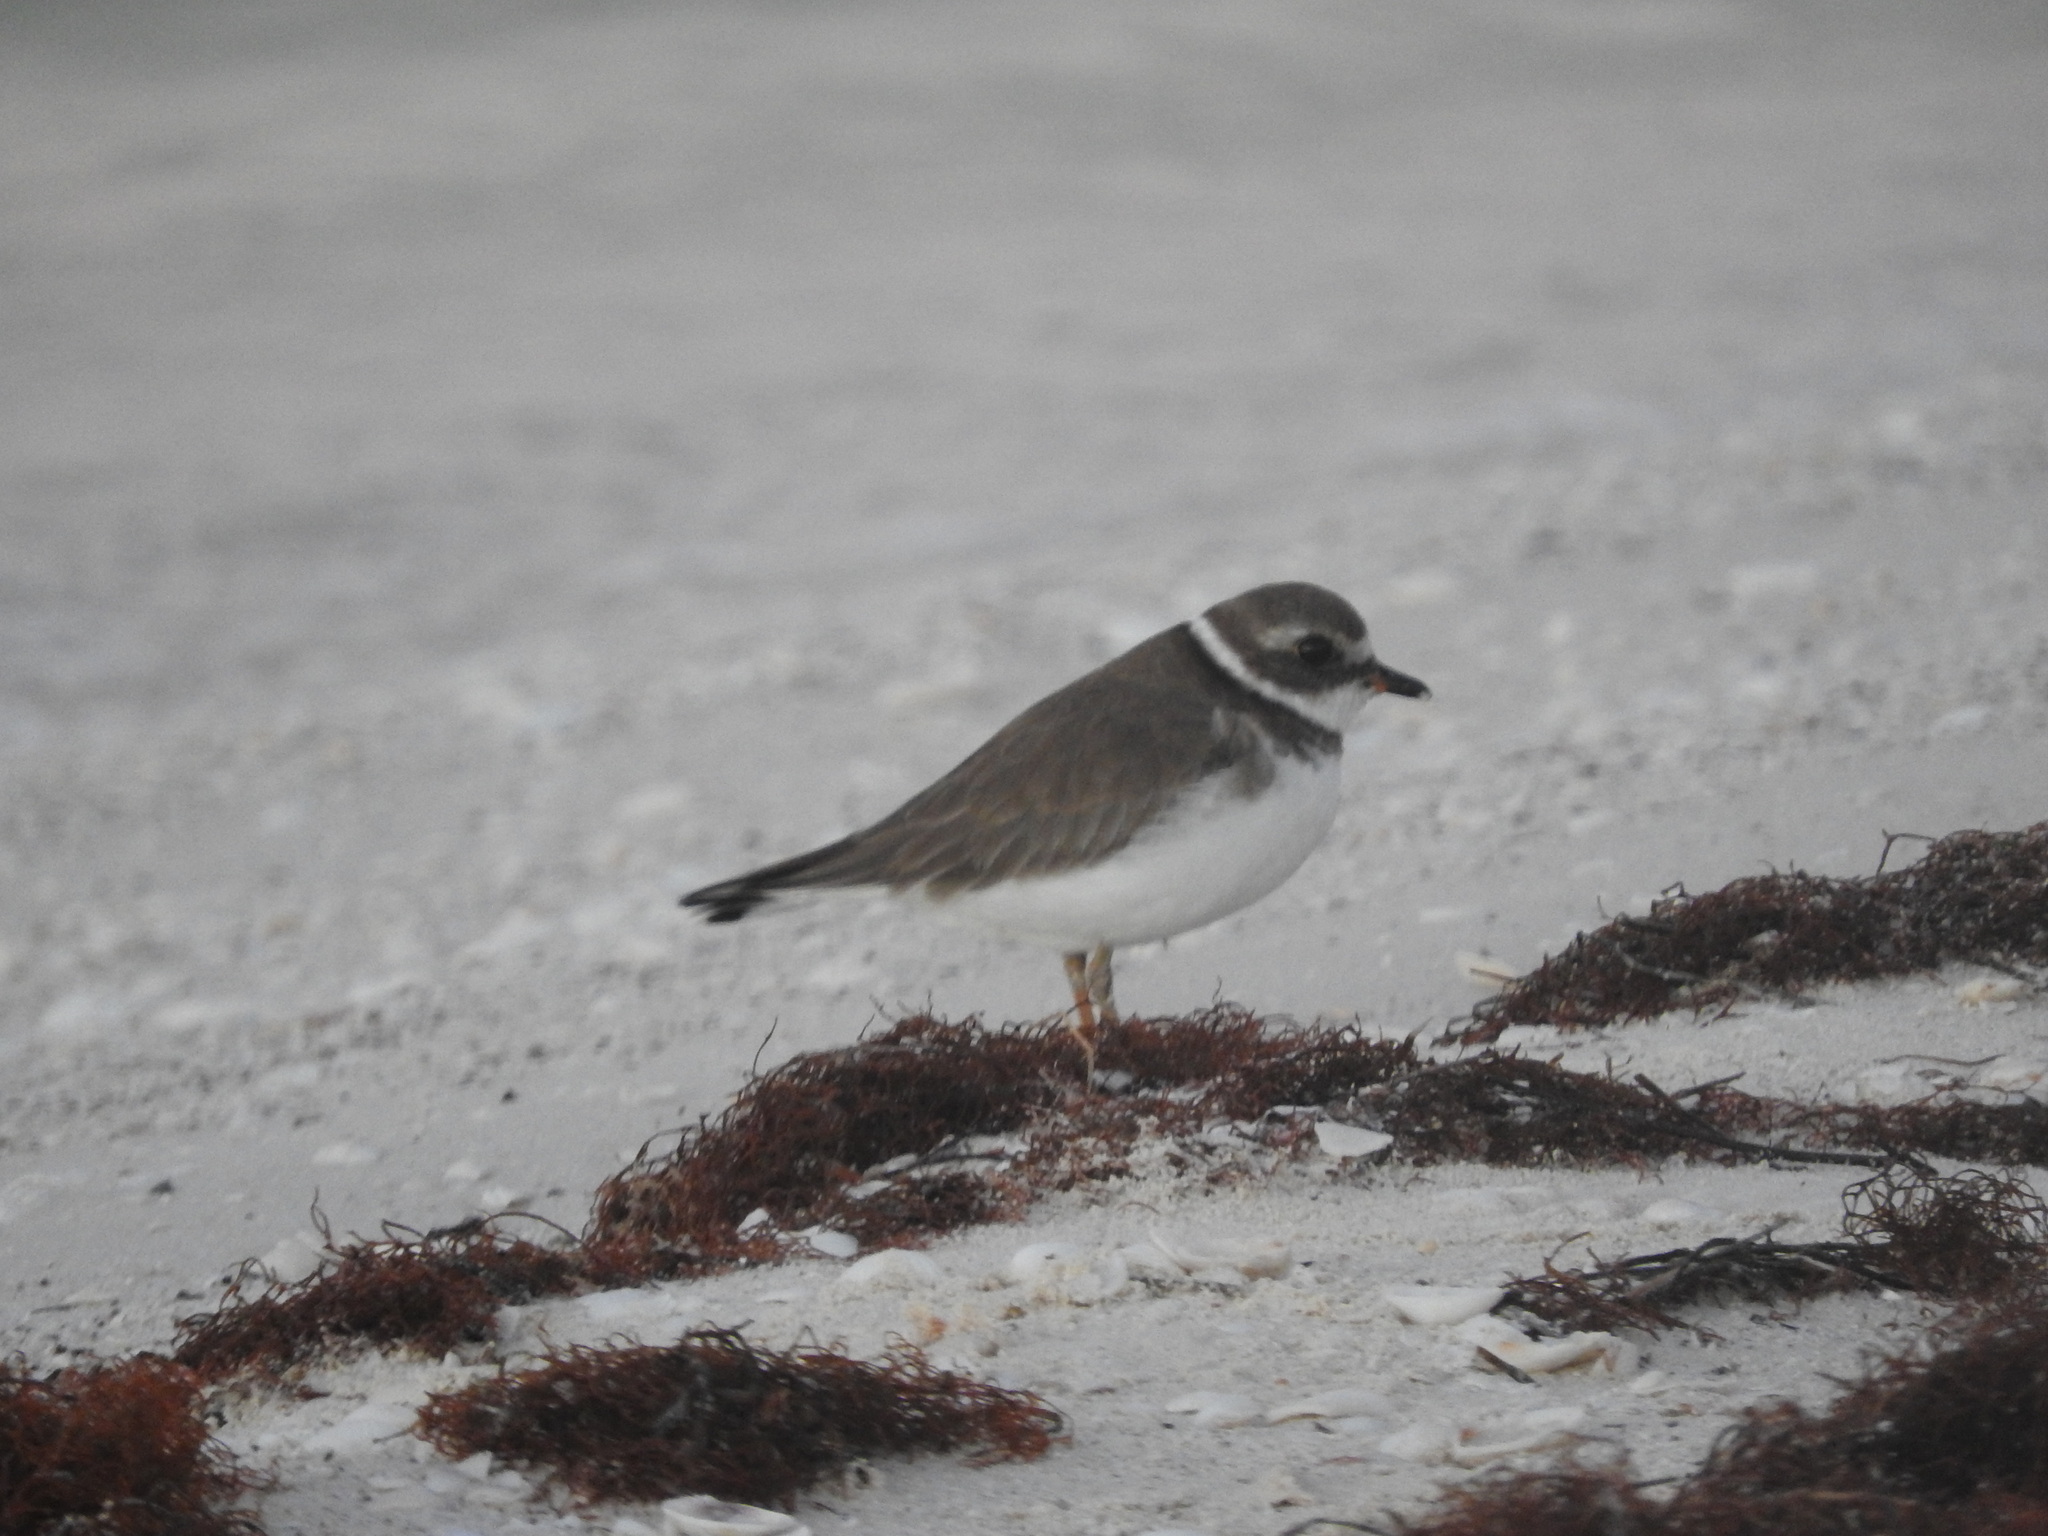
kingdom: Animalia
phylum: Chordata
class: Aves
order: Charadriiformes
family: Charadriidae
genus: Charadrius
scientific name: Charadrius semipalmatus
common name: Semipalmated plover
